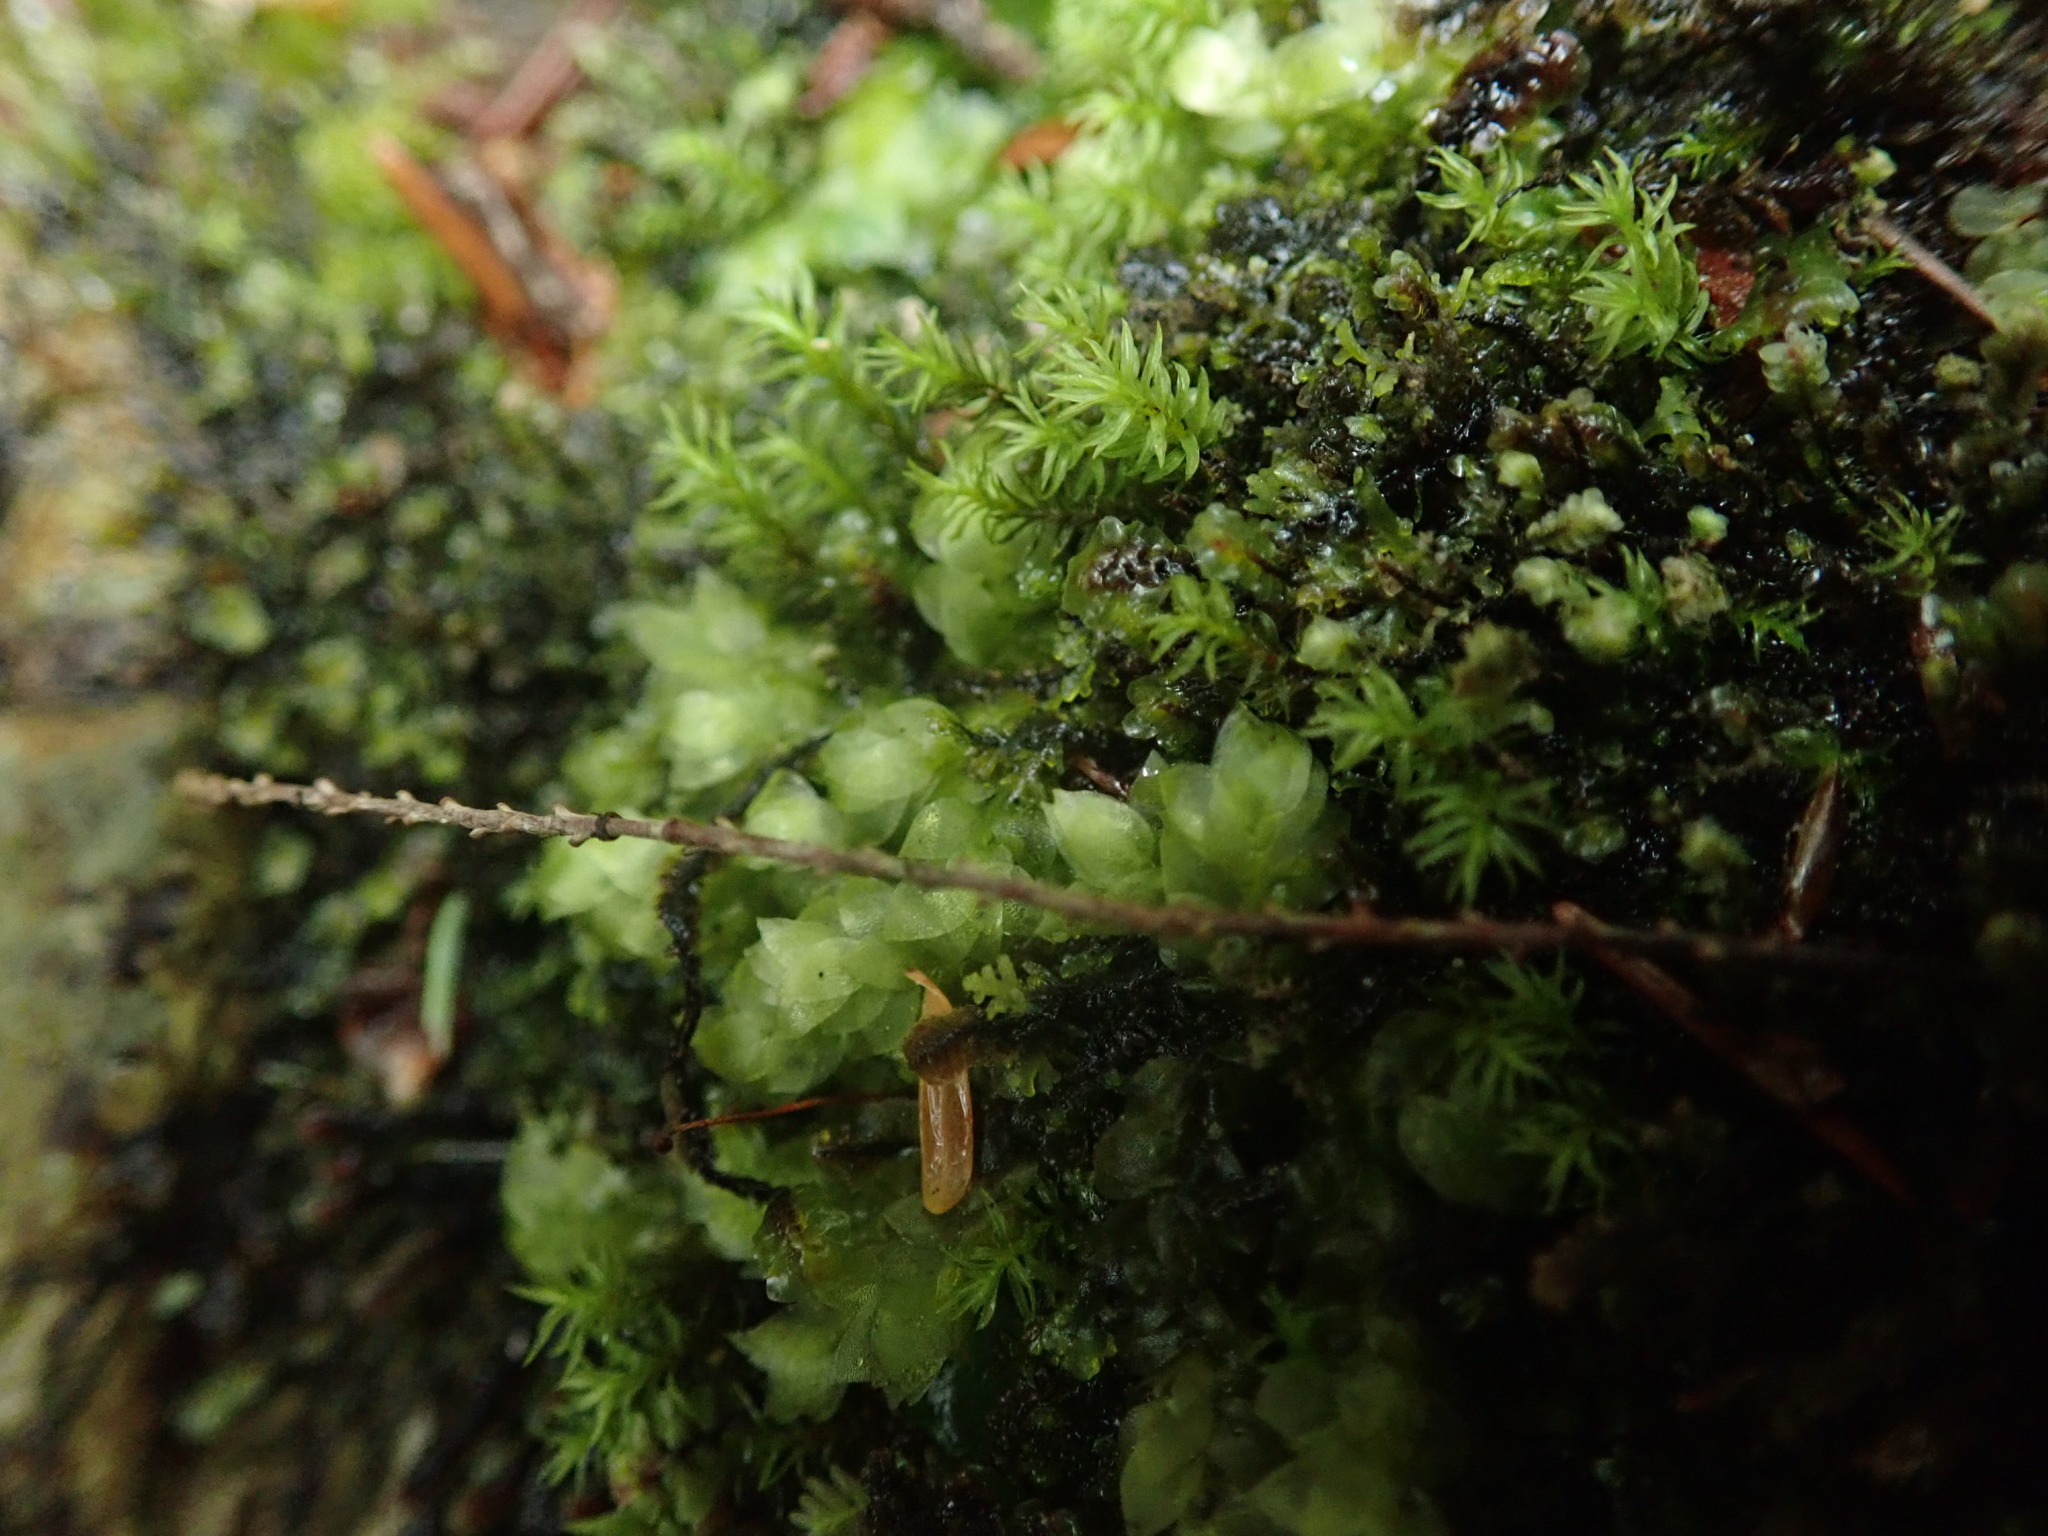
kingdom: Plantae
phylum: Bryophyta
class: Bryopsida
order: Hookeriales
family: Hookeriaceae
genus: Hookeria
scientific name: Hookeria acutifolia
